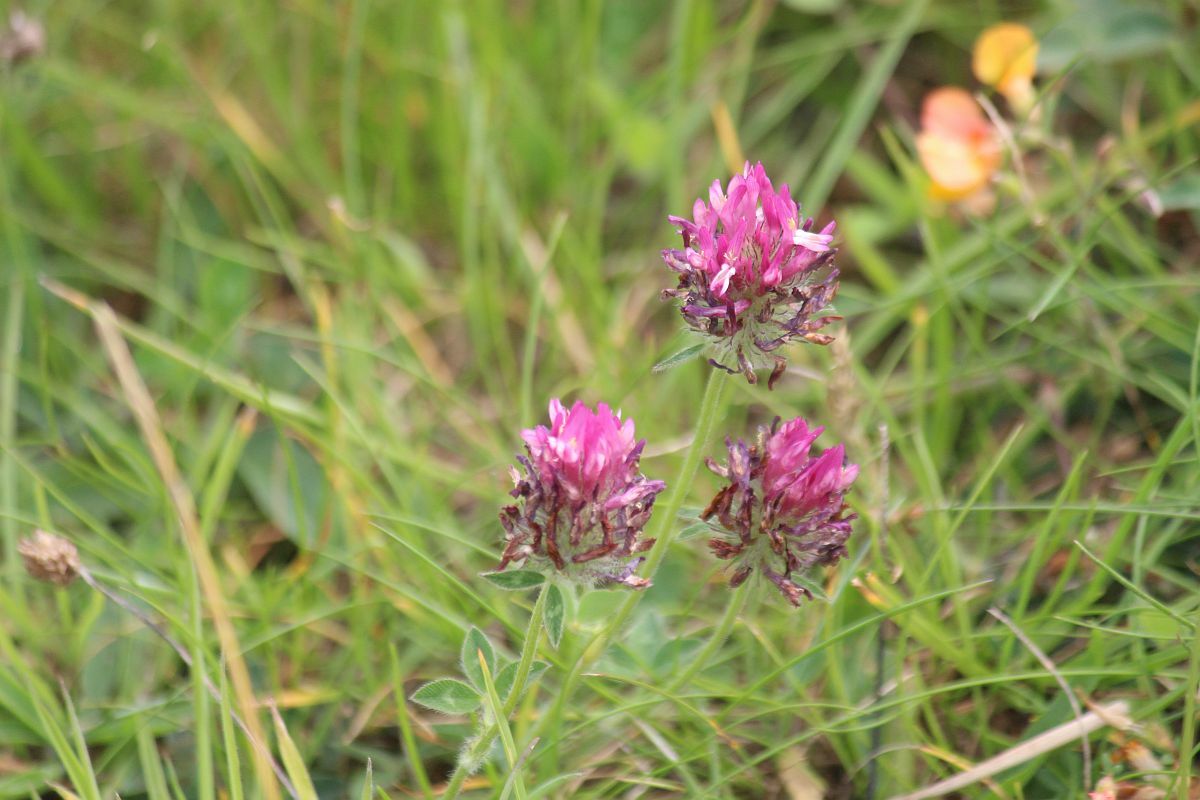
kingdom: Plantae
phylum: Tracheophyta
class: Magnoliopsida
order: Fabales
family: Fabaceae
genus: Trifolium
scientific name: Trifolium pratense
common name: Red clover
